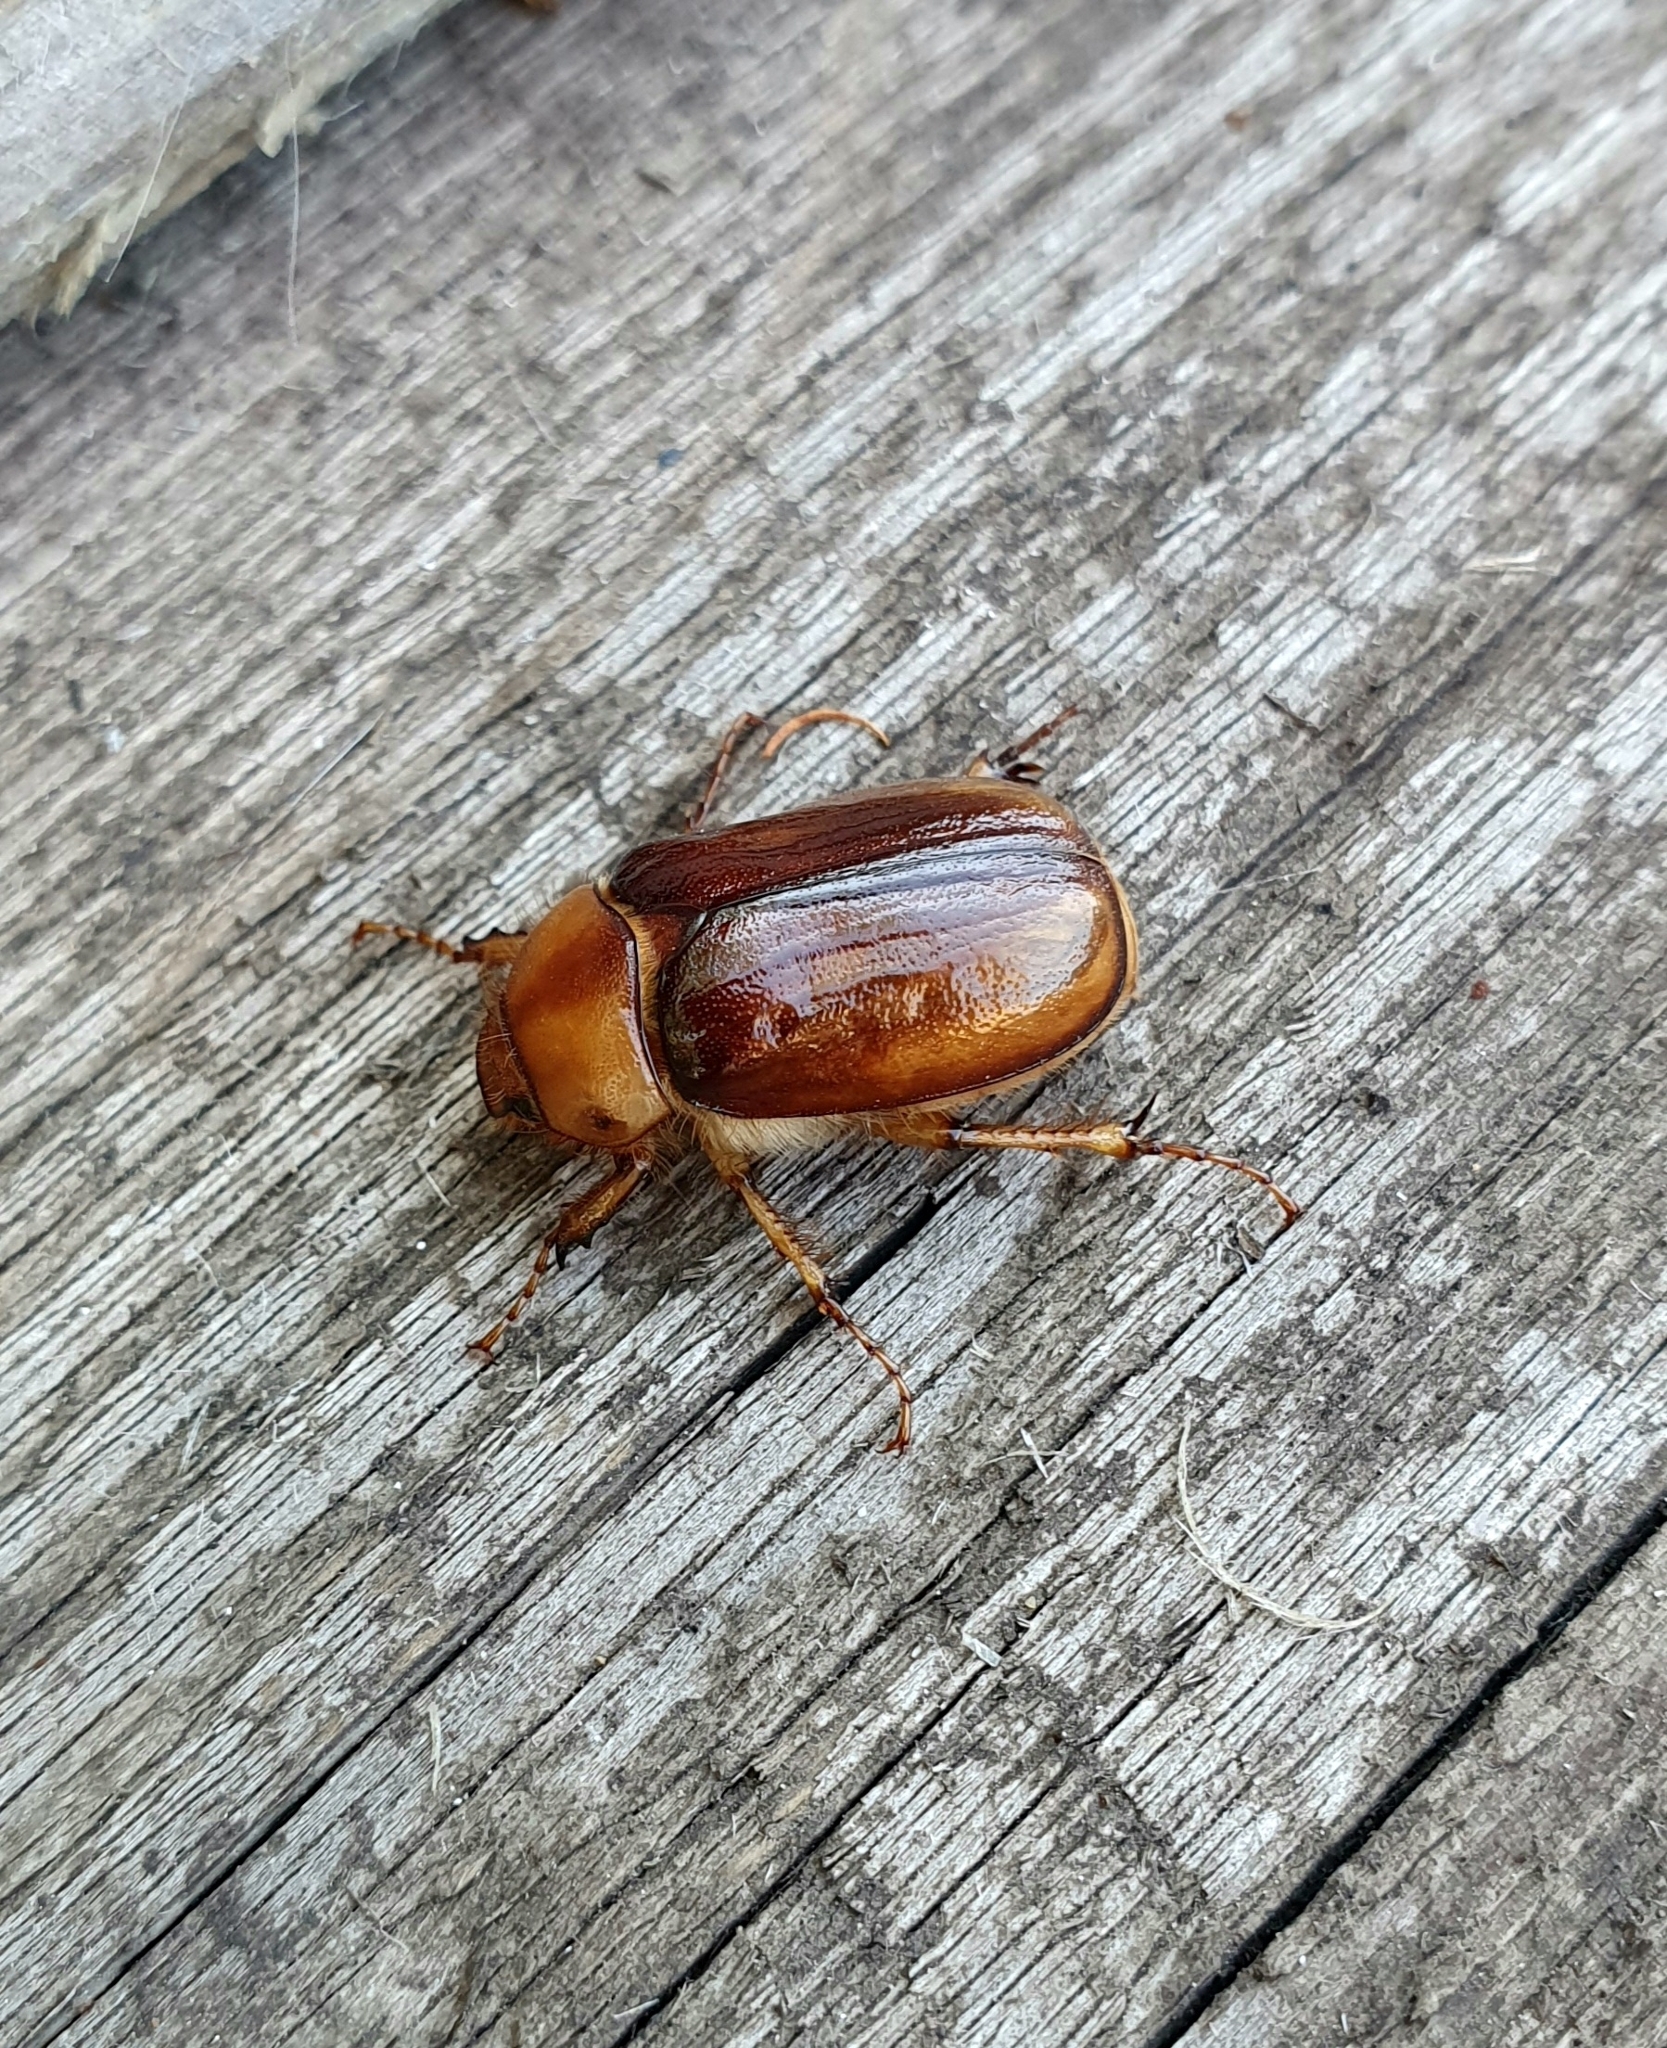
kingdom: Animalia
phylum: Arthropoda
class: Insecta
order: Coleoptera
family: Scarabaeidae
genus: Rhizotrogus
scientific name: Rhizotrogus aestivus
